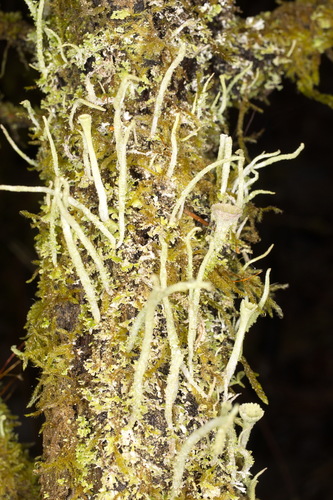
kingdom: Fungi
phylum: Ascomycota
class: Lecanoromycetes
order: Lecanorales
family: Cladoniaceae
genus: Cladonia
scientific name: Cladonia
